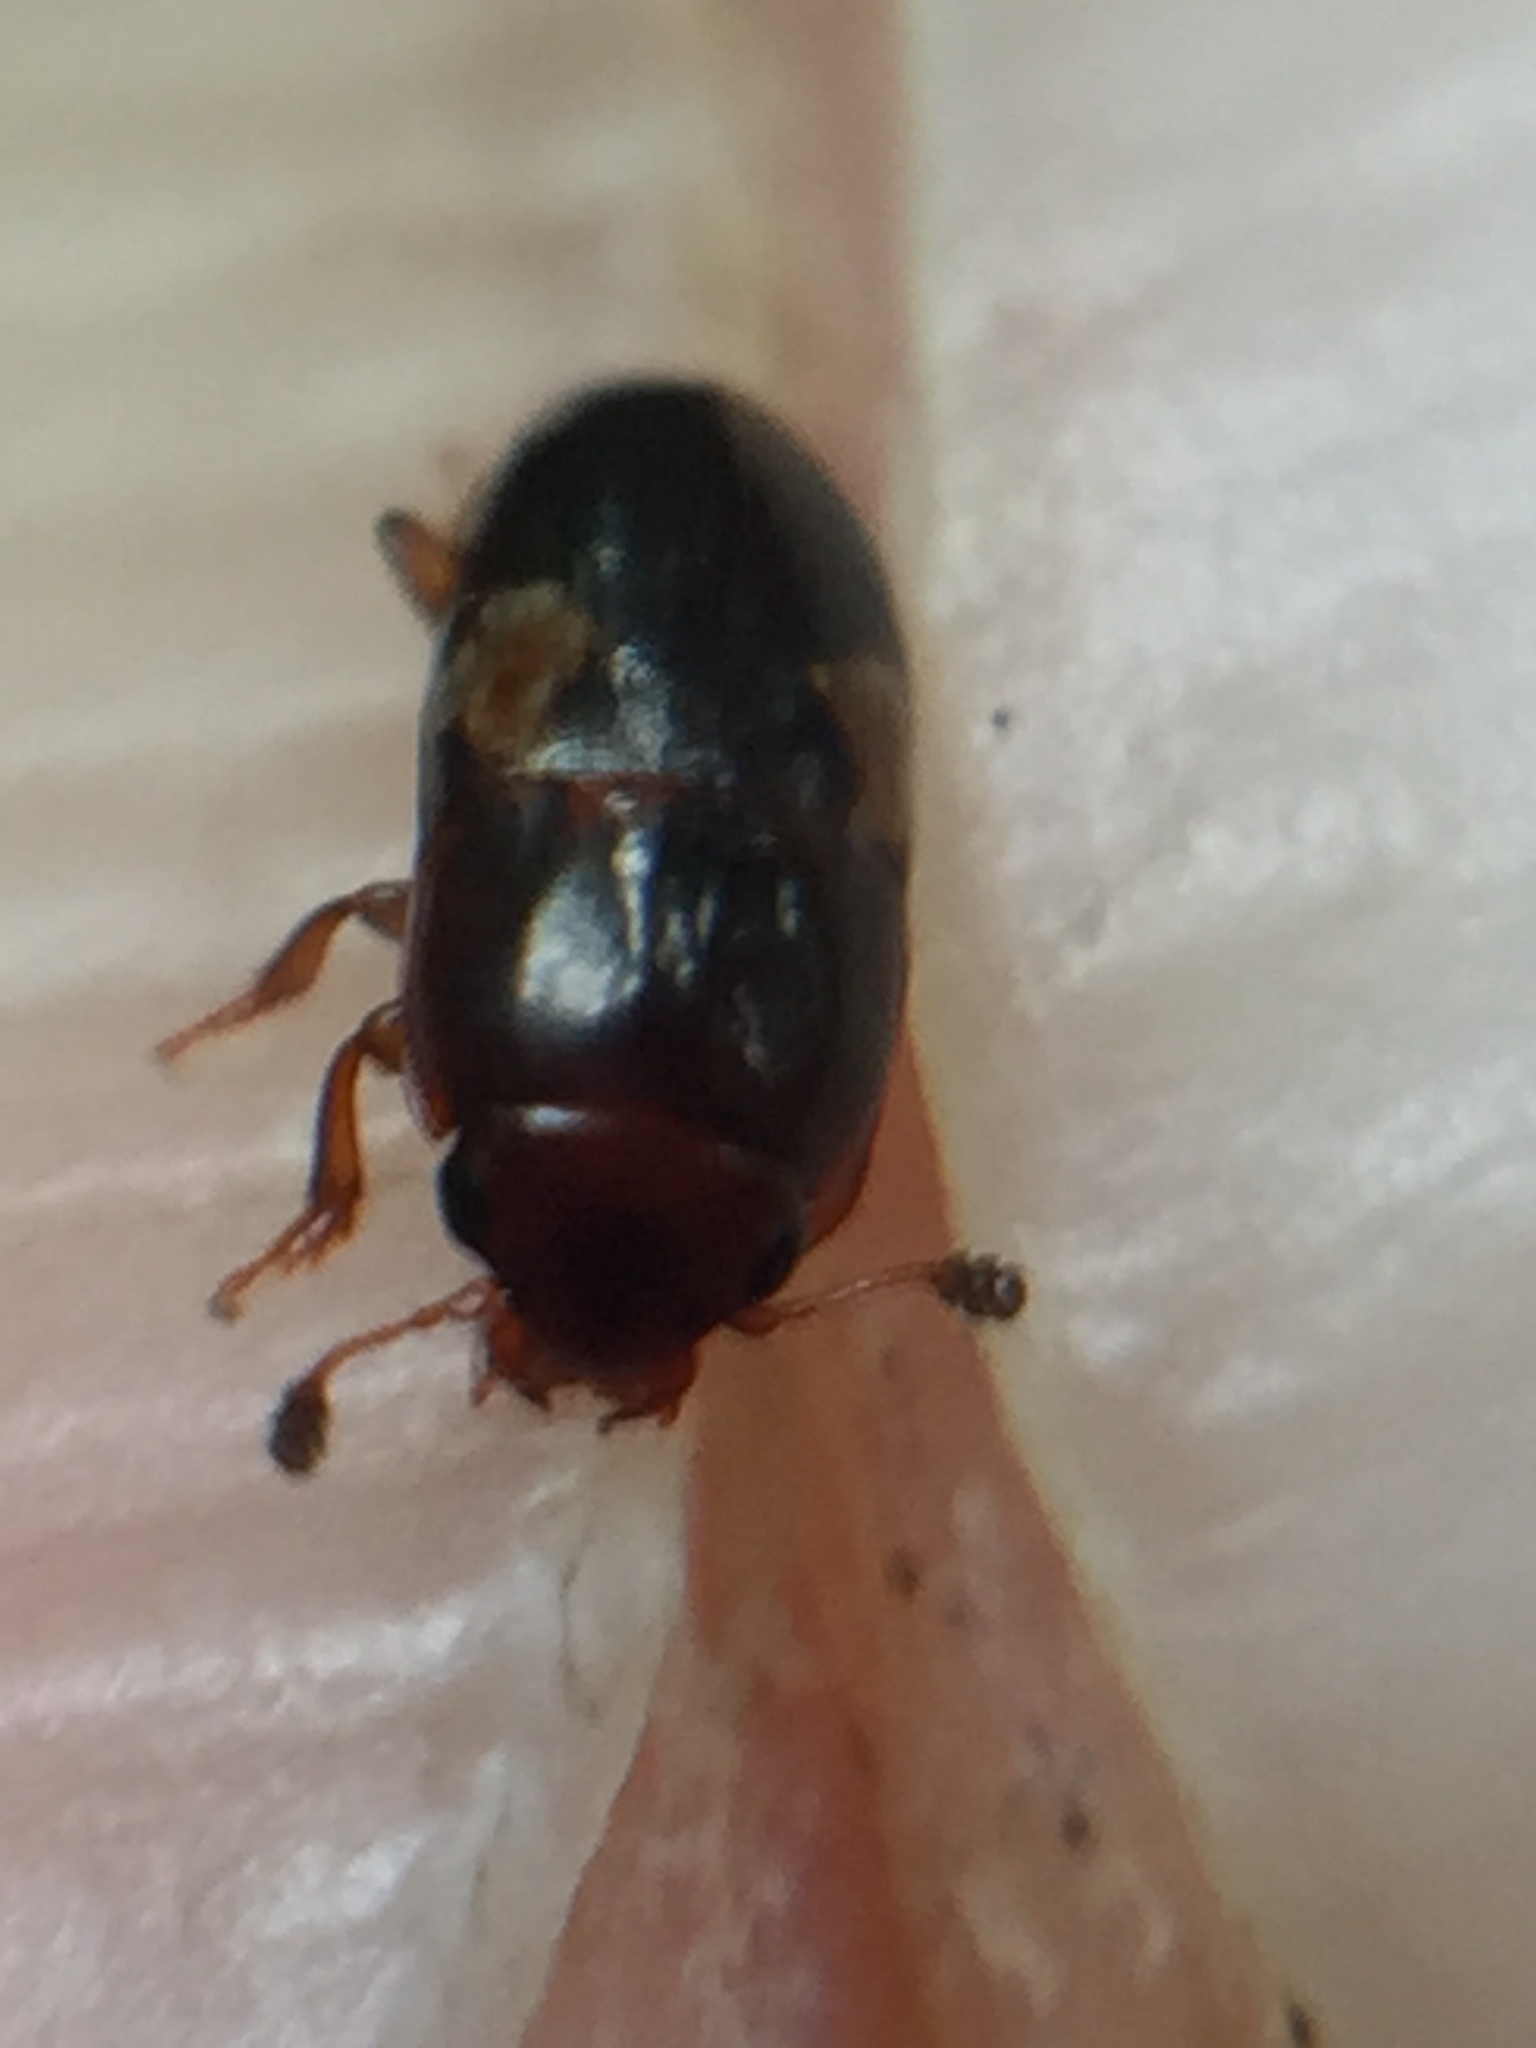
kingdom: Animalia
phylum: Arthropoda
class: Insecta
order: Coleoptera
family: Nitidulidae
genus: Cryptarcha
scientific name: Cryptarcha
